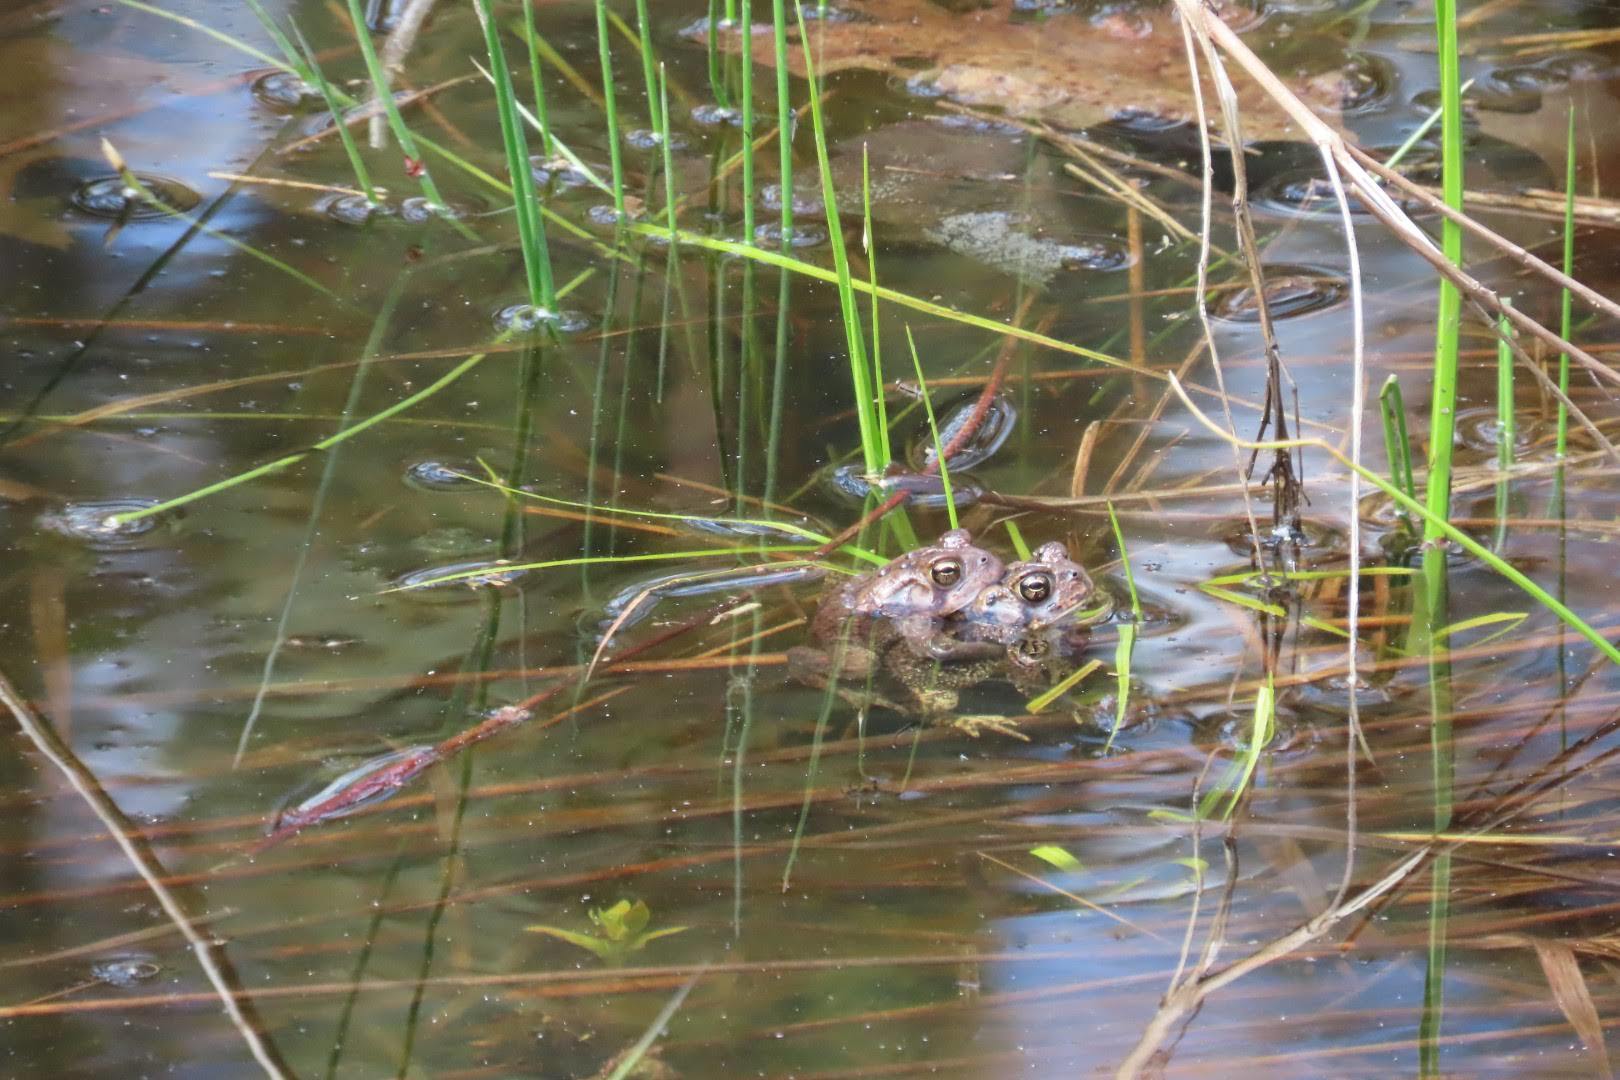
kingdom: Animalia
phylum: Chordata
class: Amphibia
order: Anura
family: Bufonidae
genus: Anaxyrus
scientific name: Anaxyrus americanus
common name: American toad
